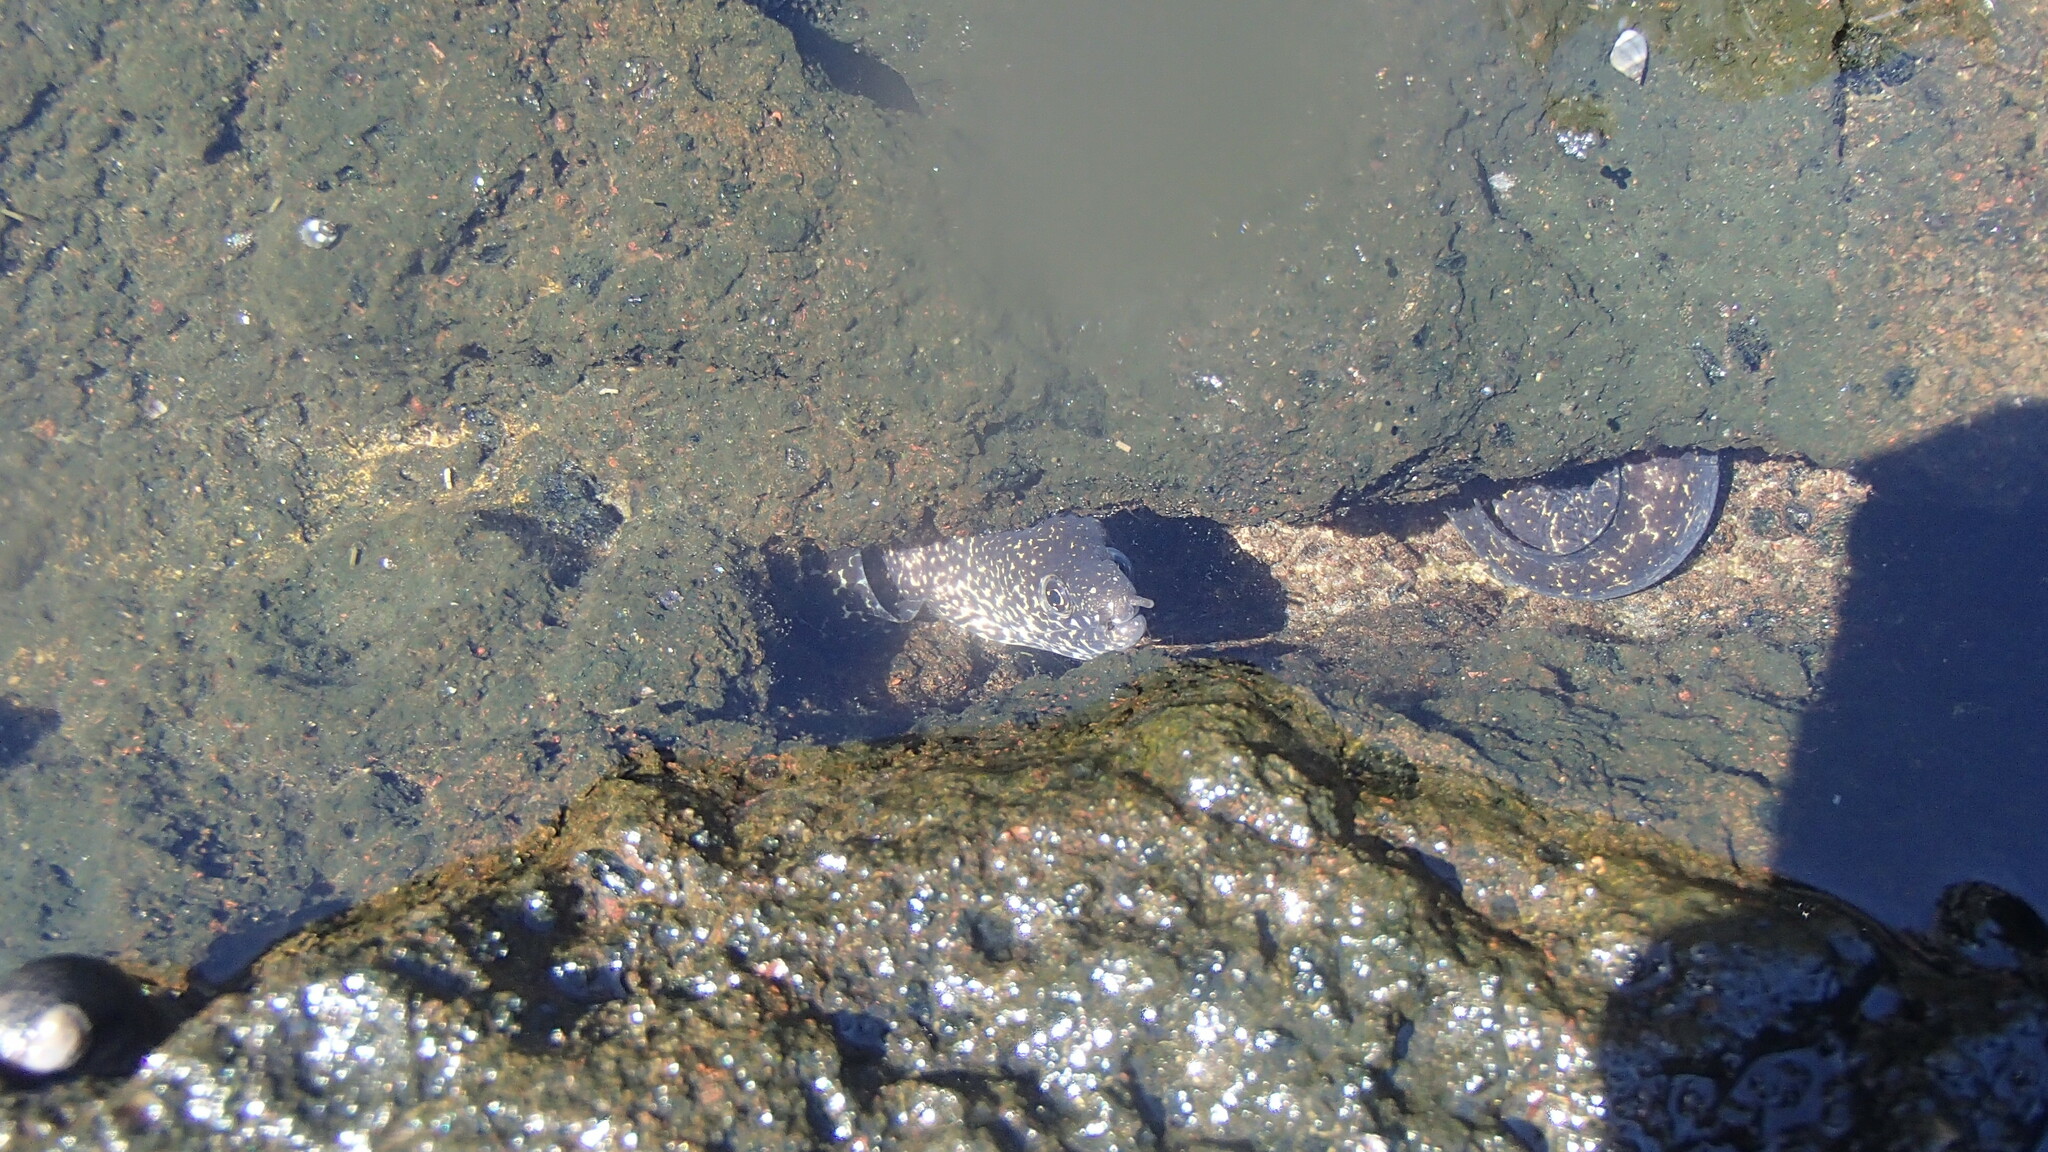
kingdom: Animalia
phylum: Chordata
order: Anguilliformes
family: Muraenidae
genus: Gymnothorax
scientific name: Gymnothorax pictus
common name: Peppered moray
